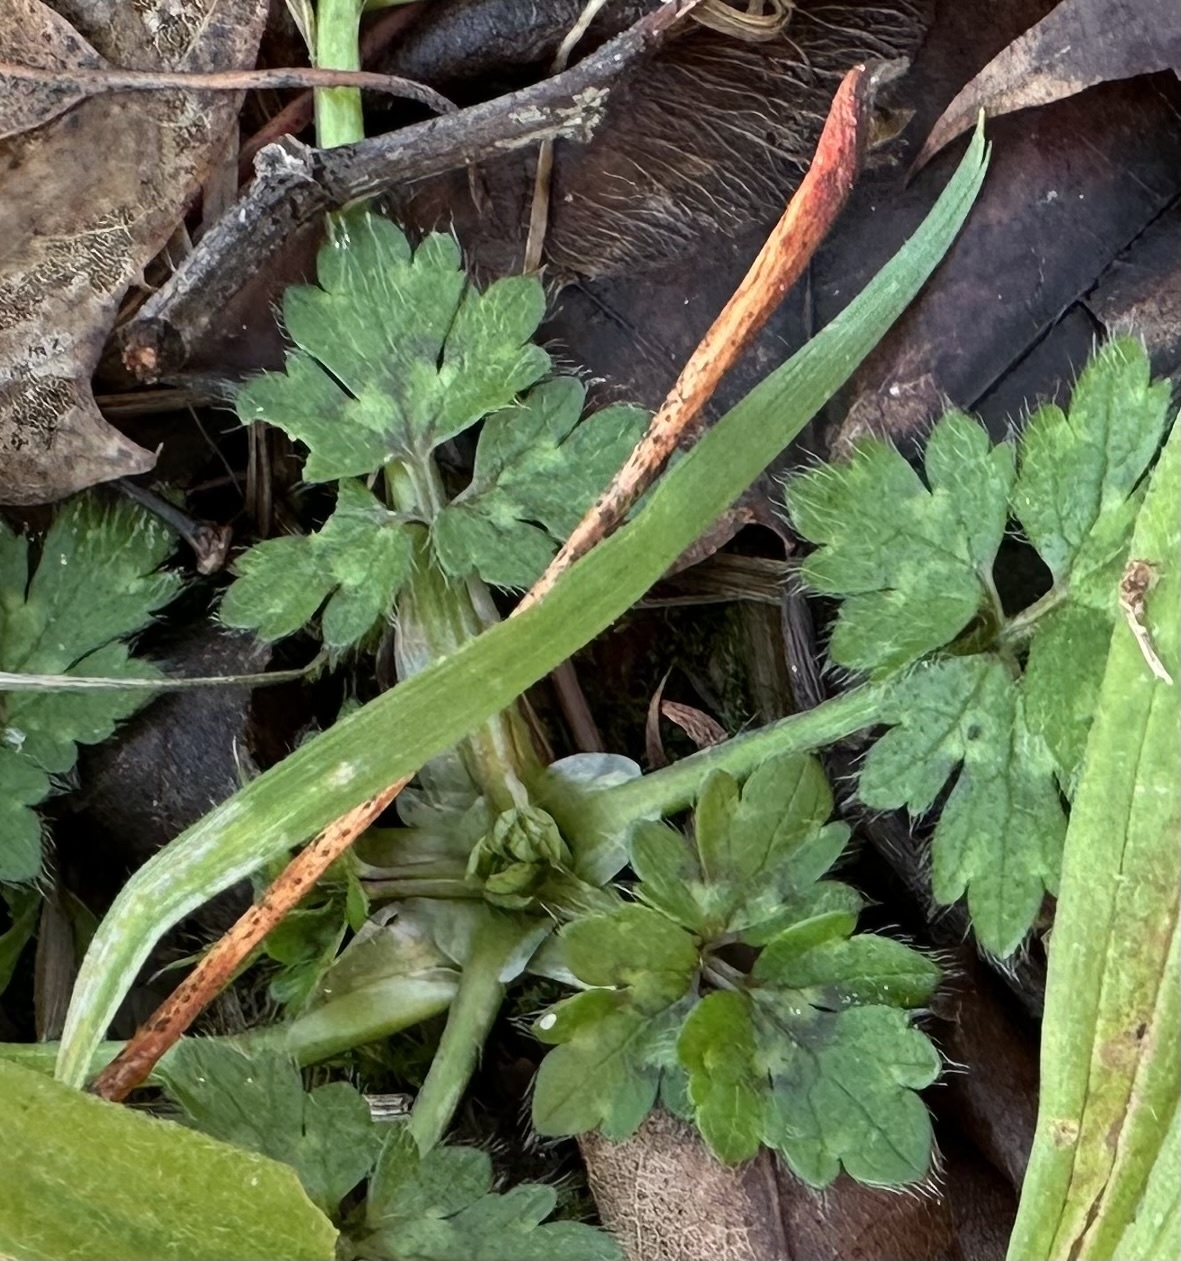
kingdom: Plantae
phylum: Tracheophyta
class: Magnoliopsida
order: Ranunculales
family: Ranunculaceae
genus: Ranunculus
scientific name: Ranunculus repens
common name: Creeping buttercup
